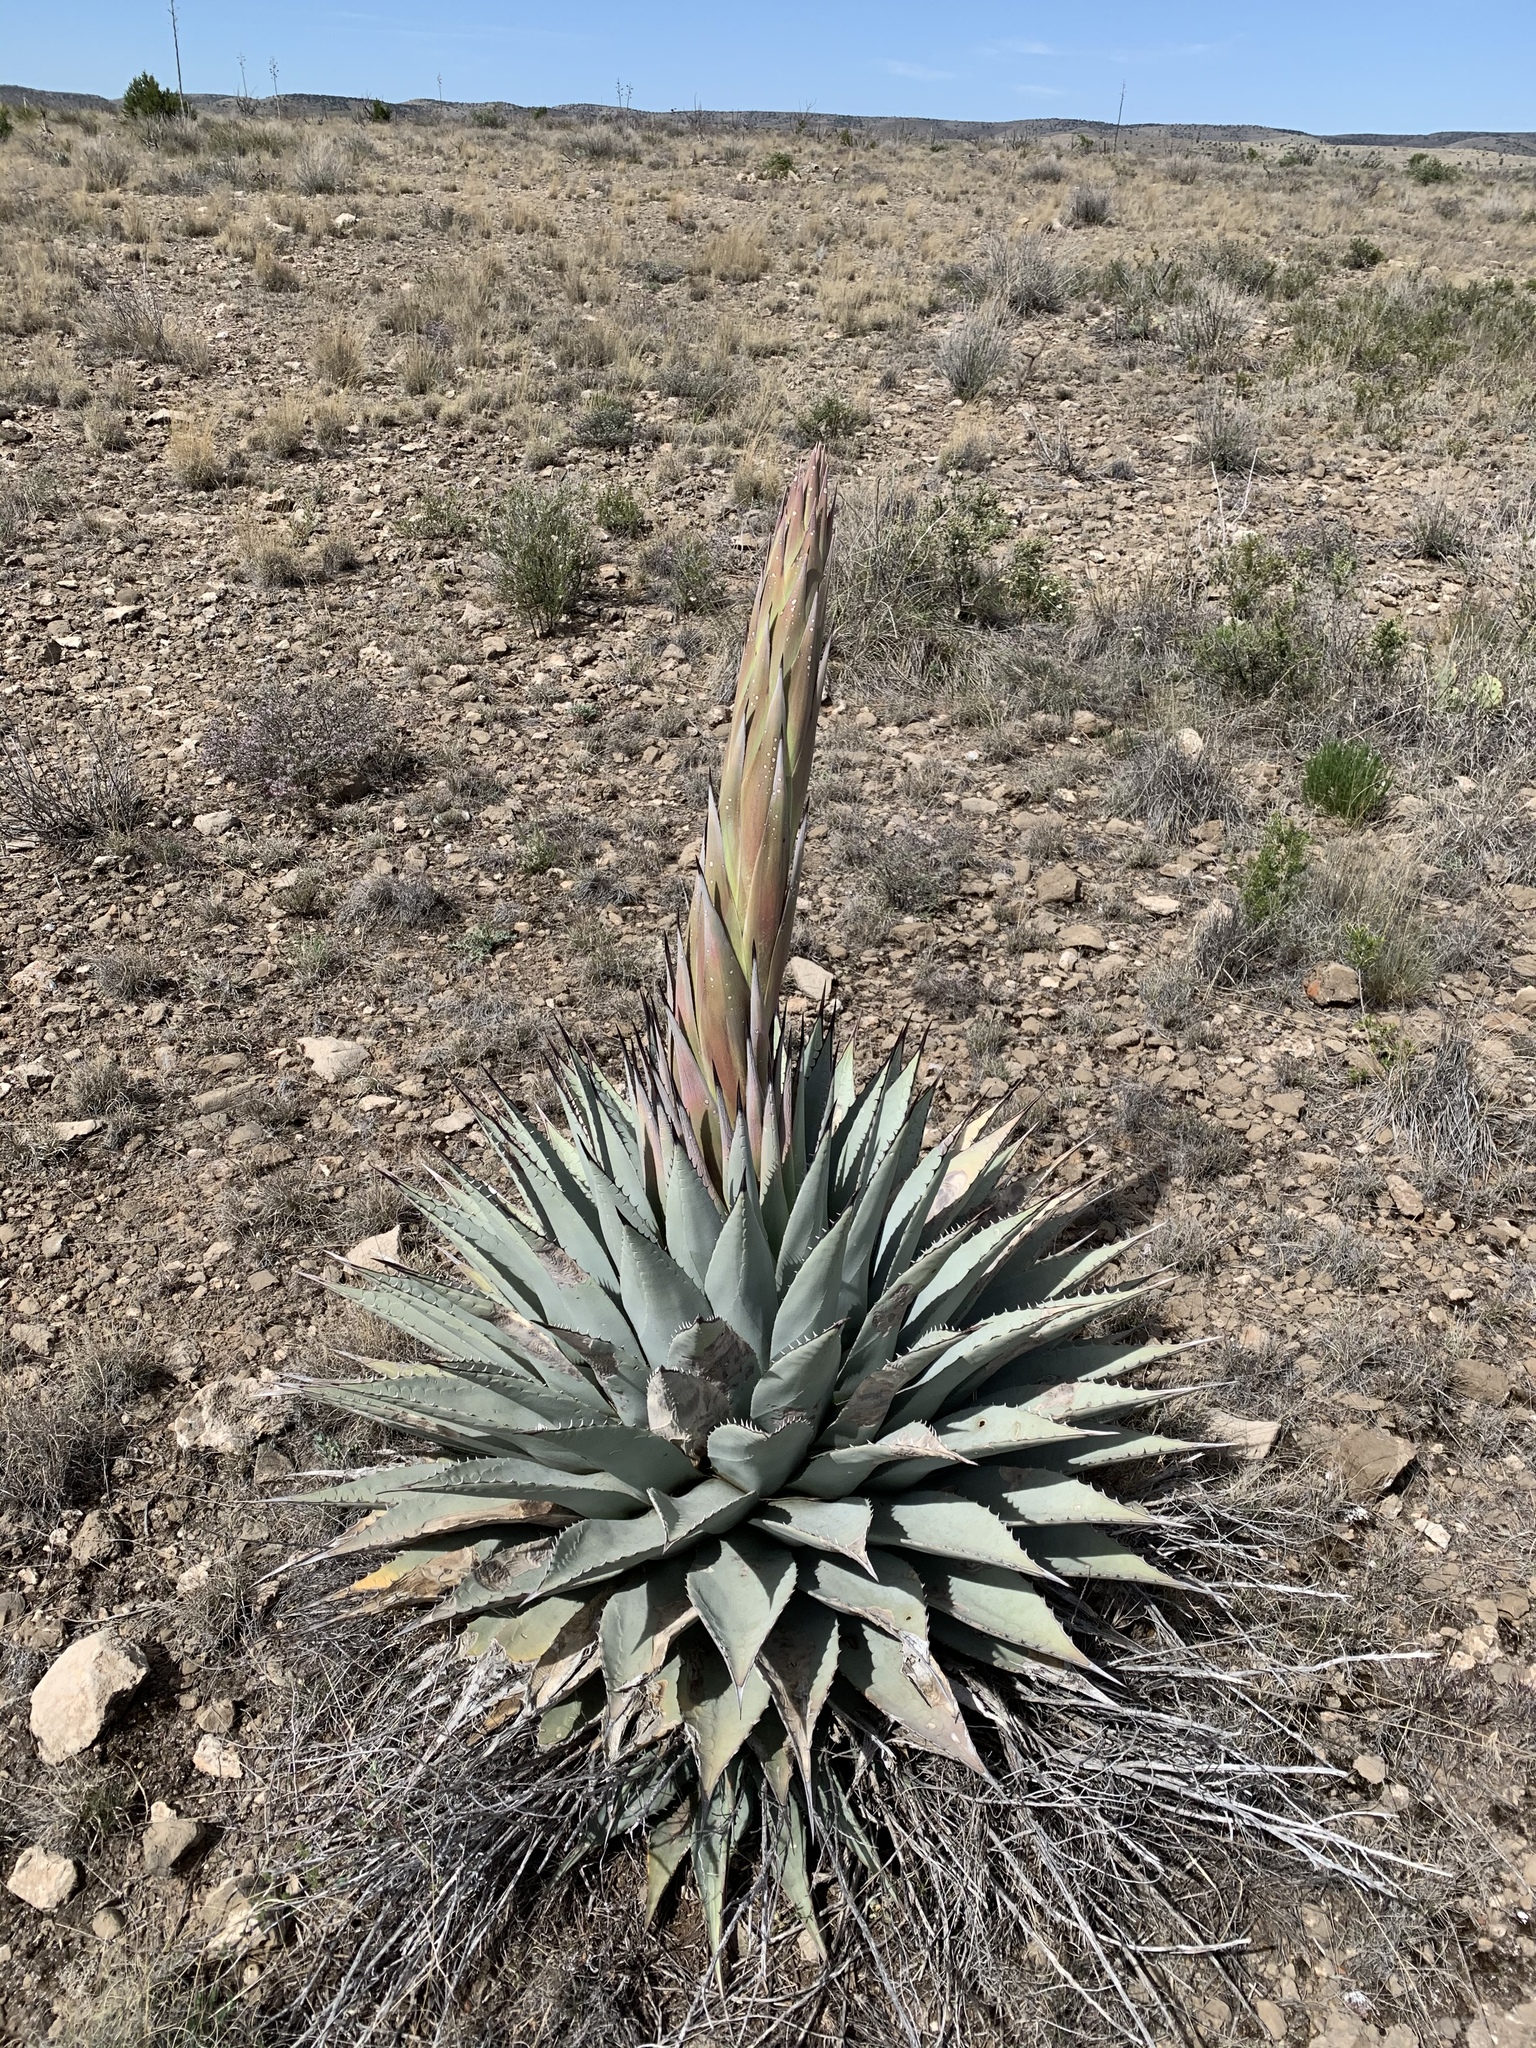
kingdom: Plantae
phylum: Tracheophyta
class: Liliopsida
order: Asparagales
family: Asparagaceae
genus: Agave
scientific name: Agave parryi
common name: Parry's agave
